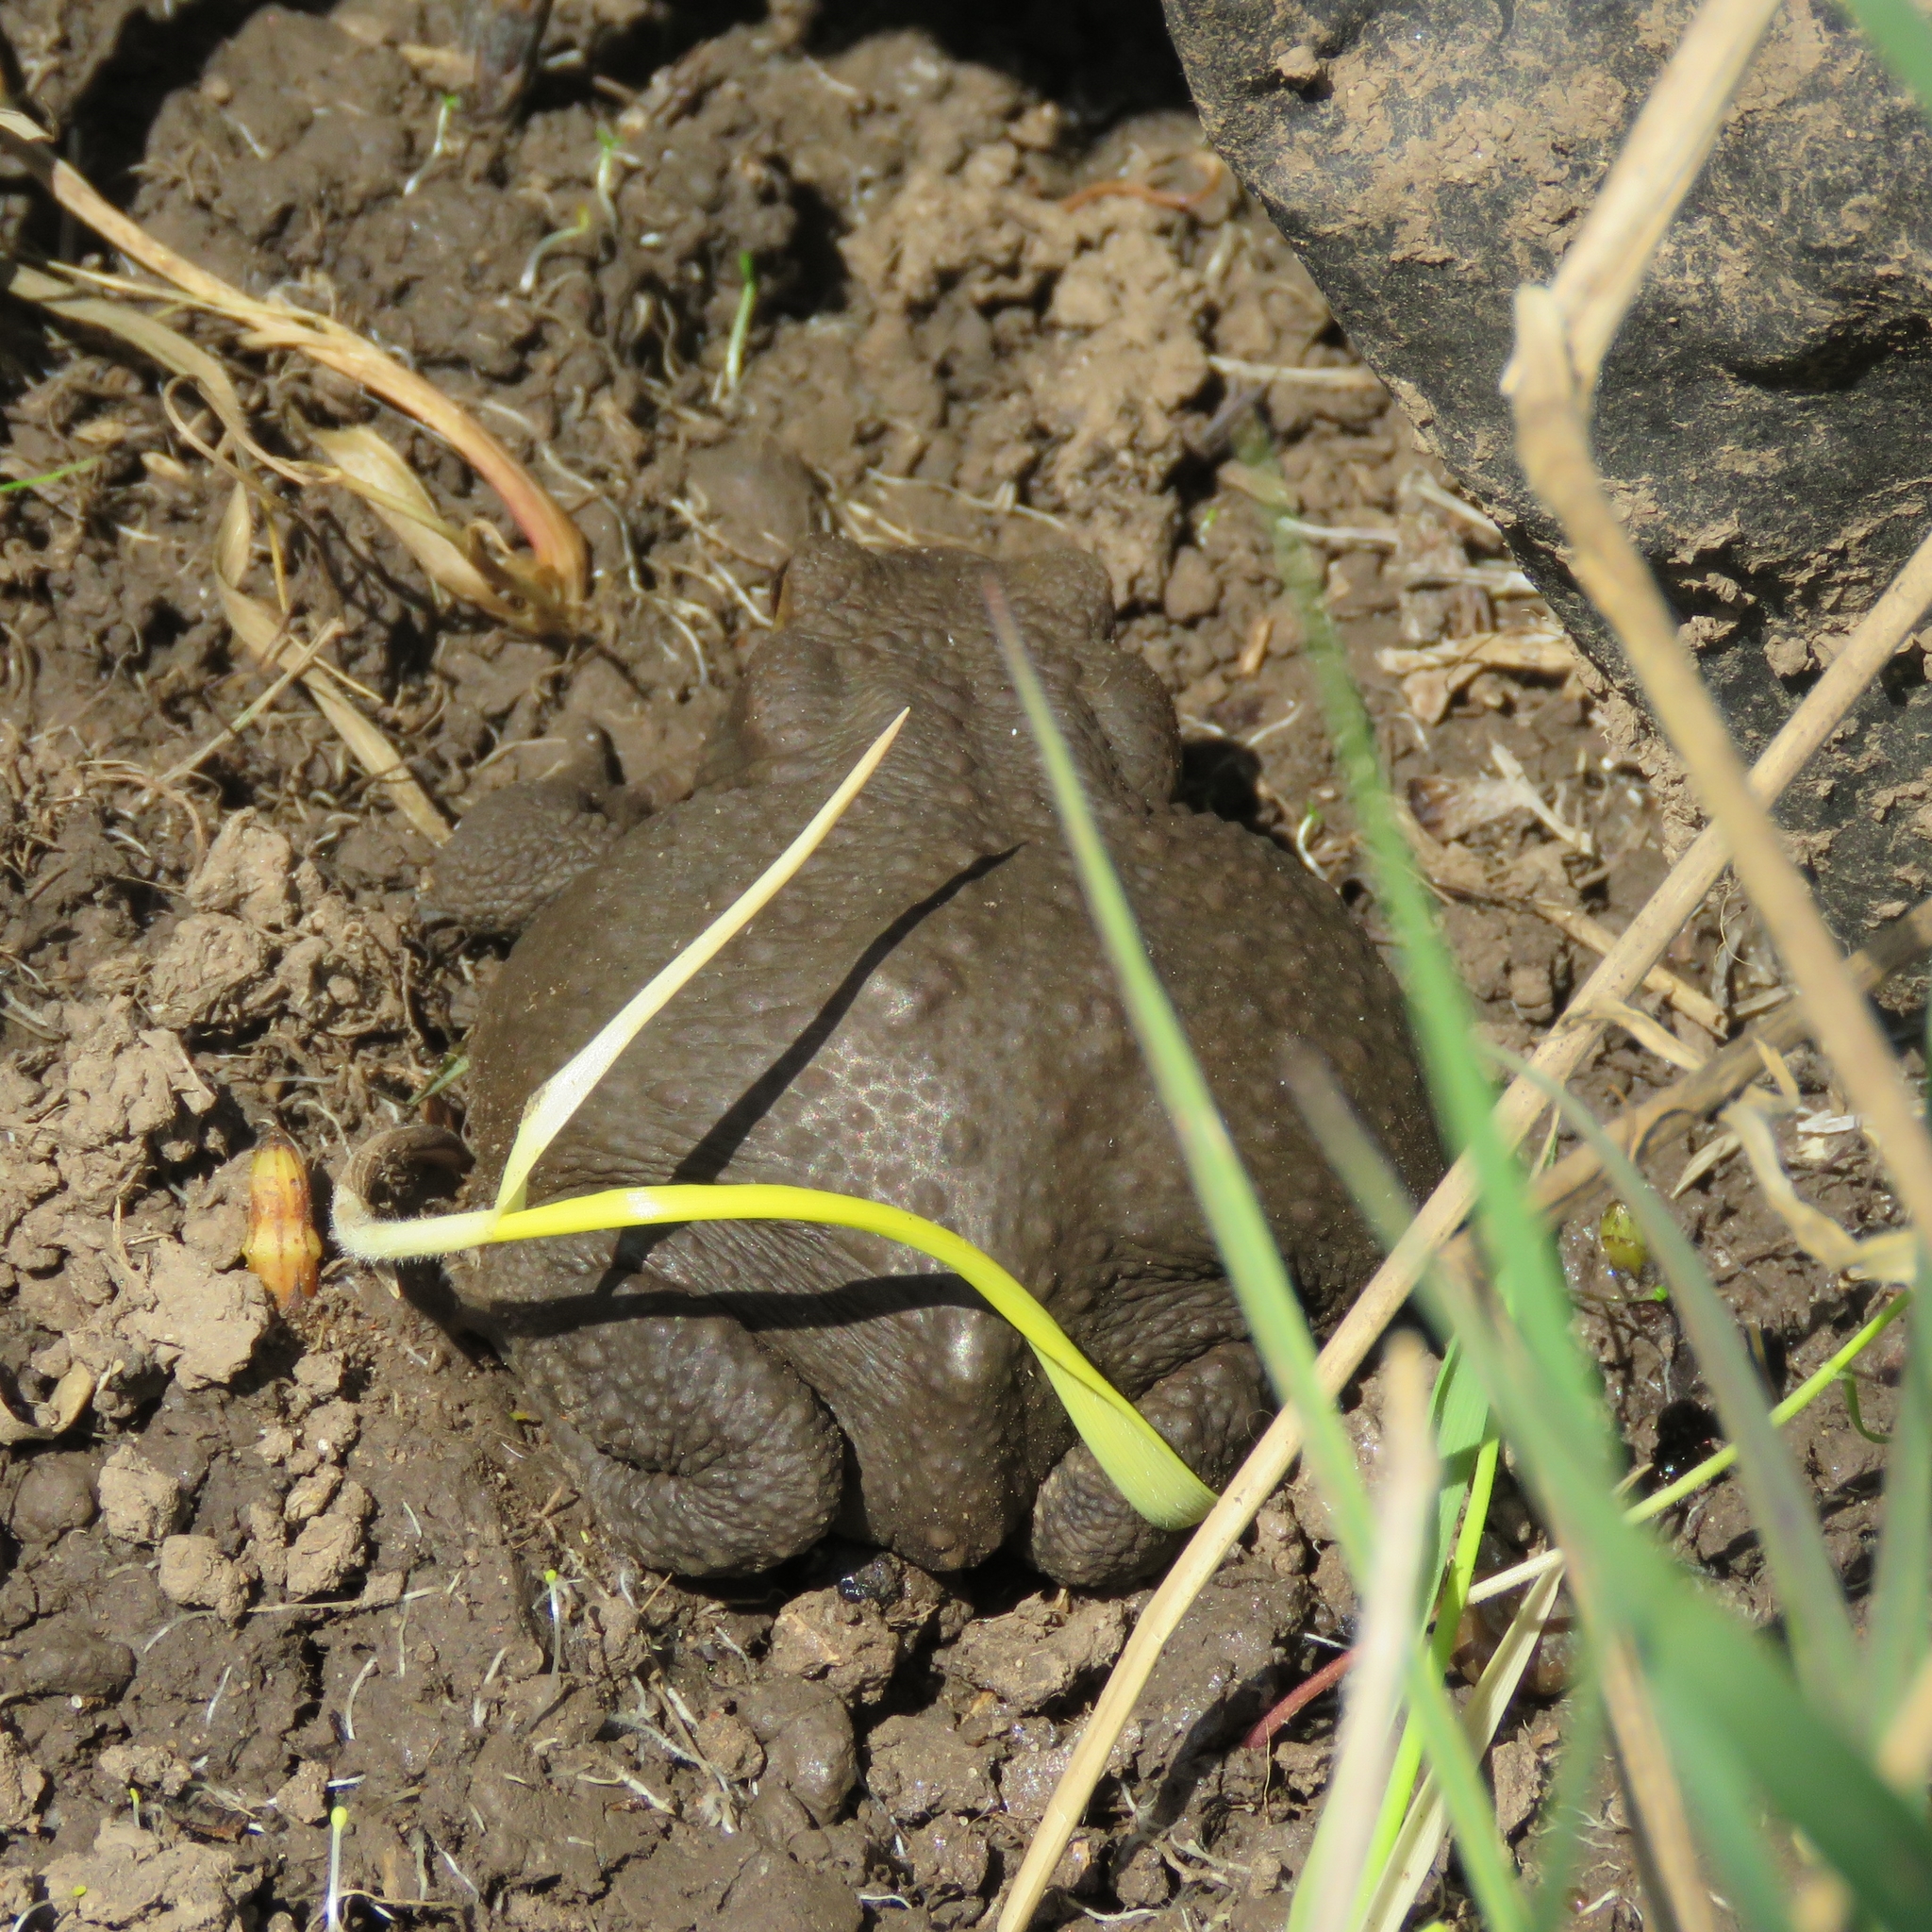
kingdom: Animalia
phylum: Chordata
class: Amphibia
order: Anura
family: Bufonidae
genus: Bufo
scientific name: Bufo bufo
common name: Common toad
